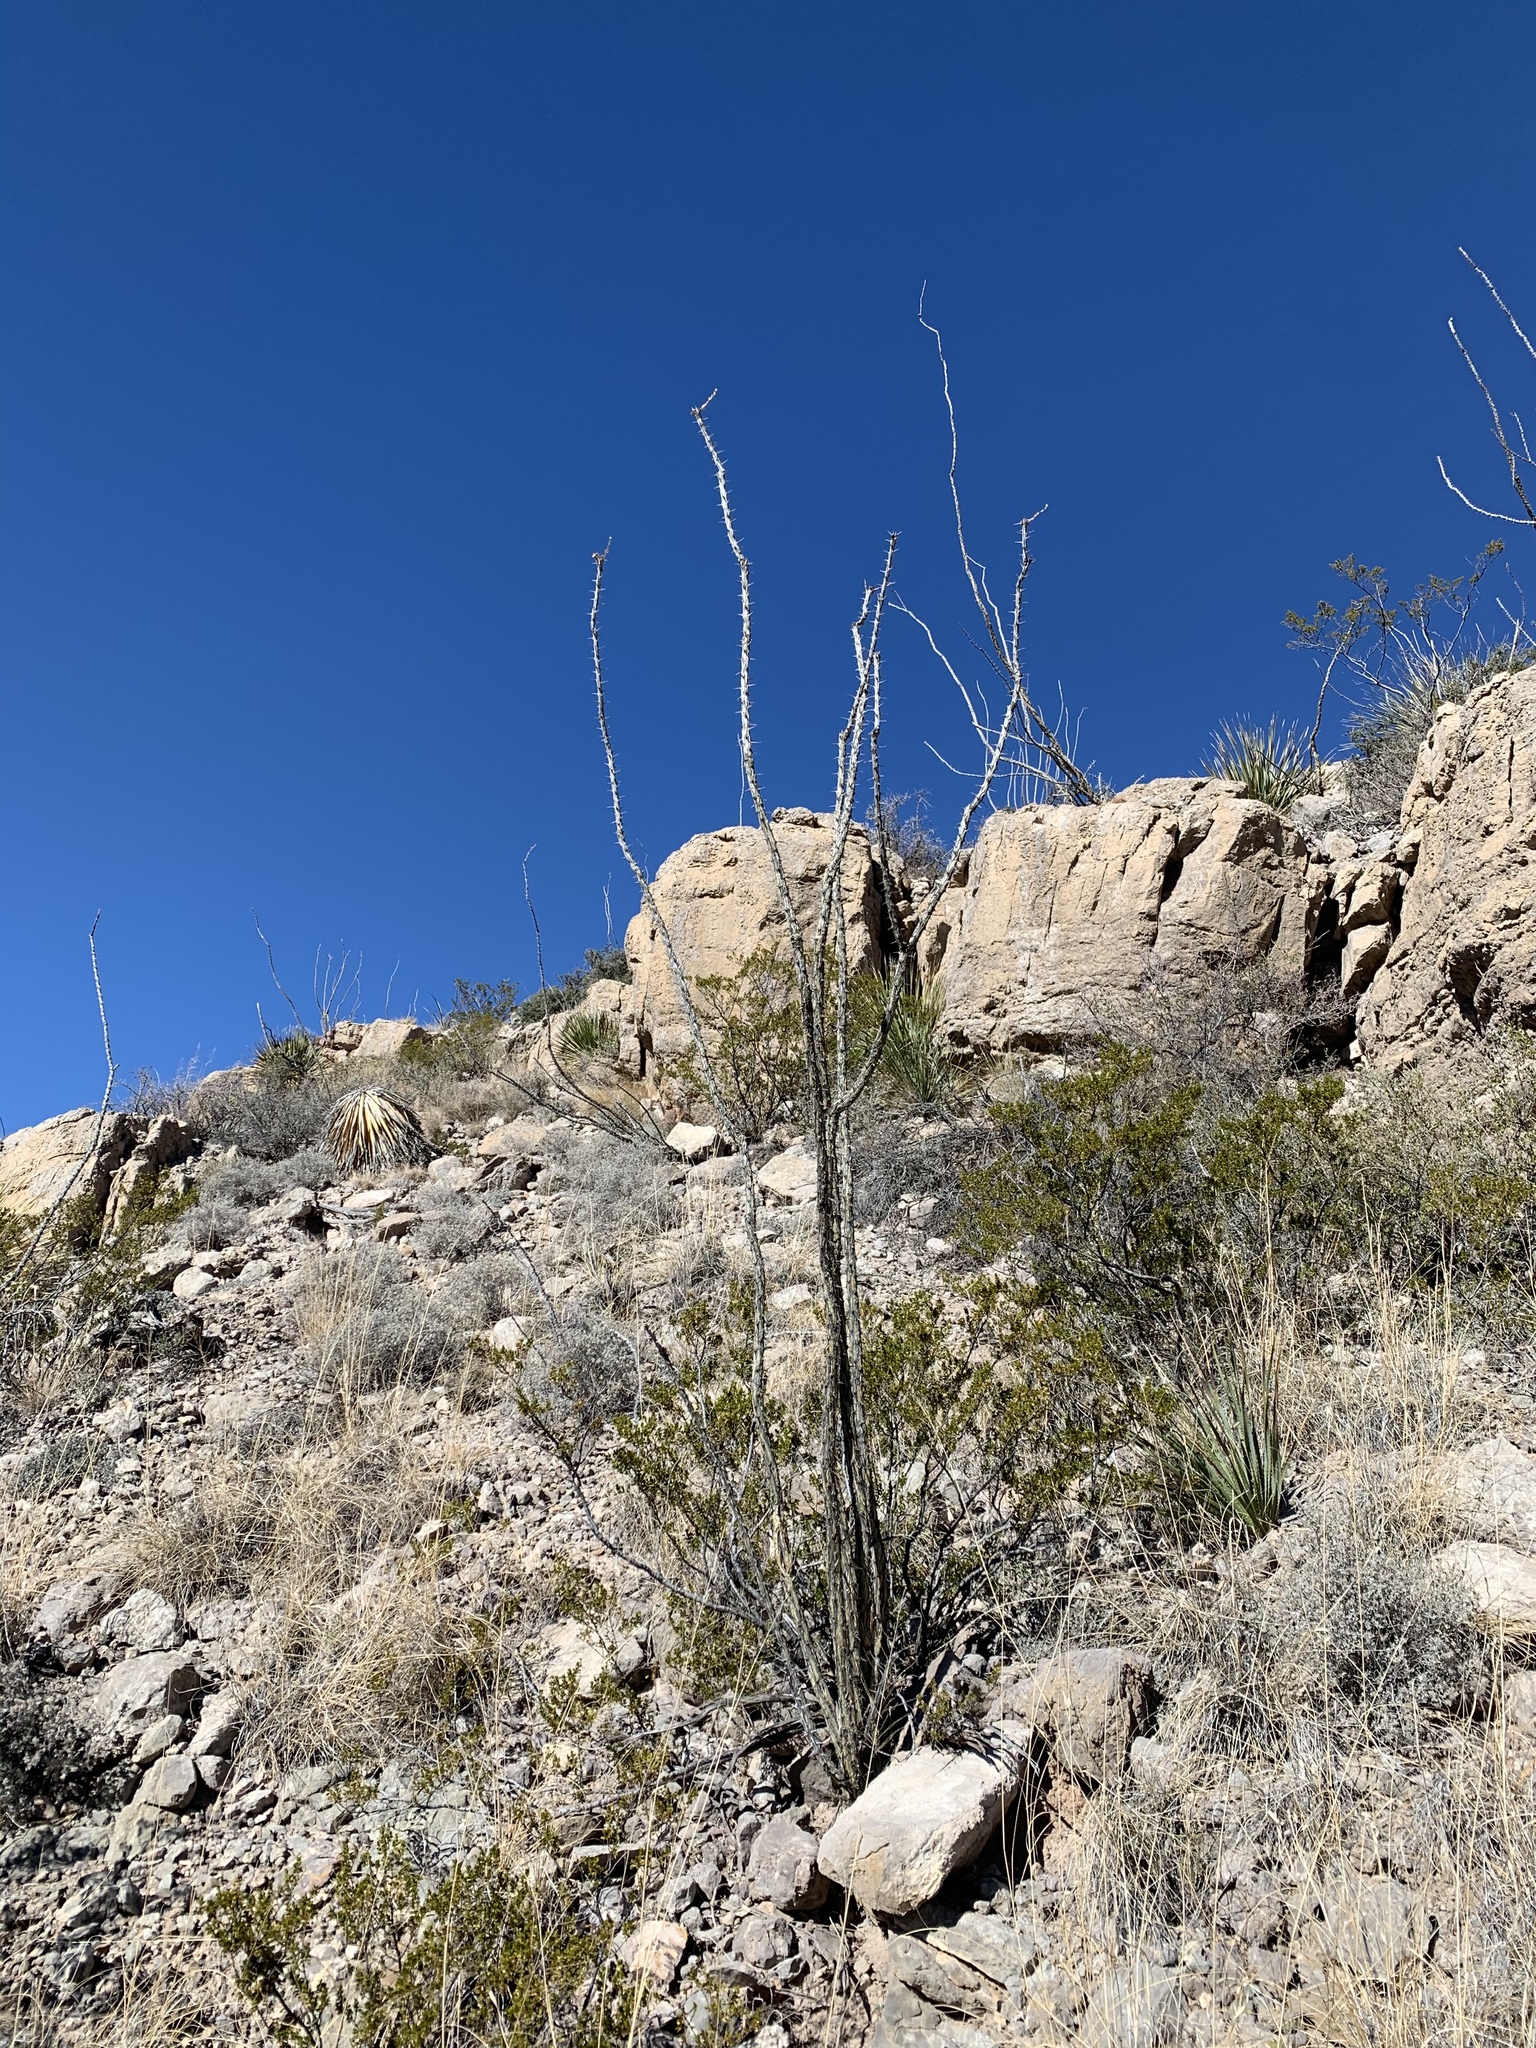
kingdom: Plantae
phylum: Tracheophyta
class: Magnoliopsida
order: Ericales
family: Fouquieriaceae
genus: Fouquieria
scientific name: Fouquieria splendens
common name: Vine-cactus
